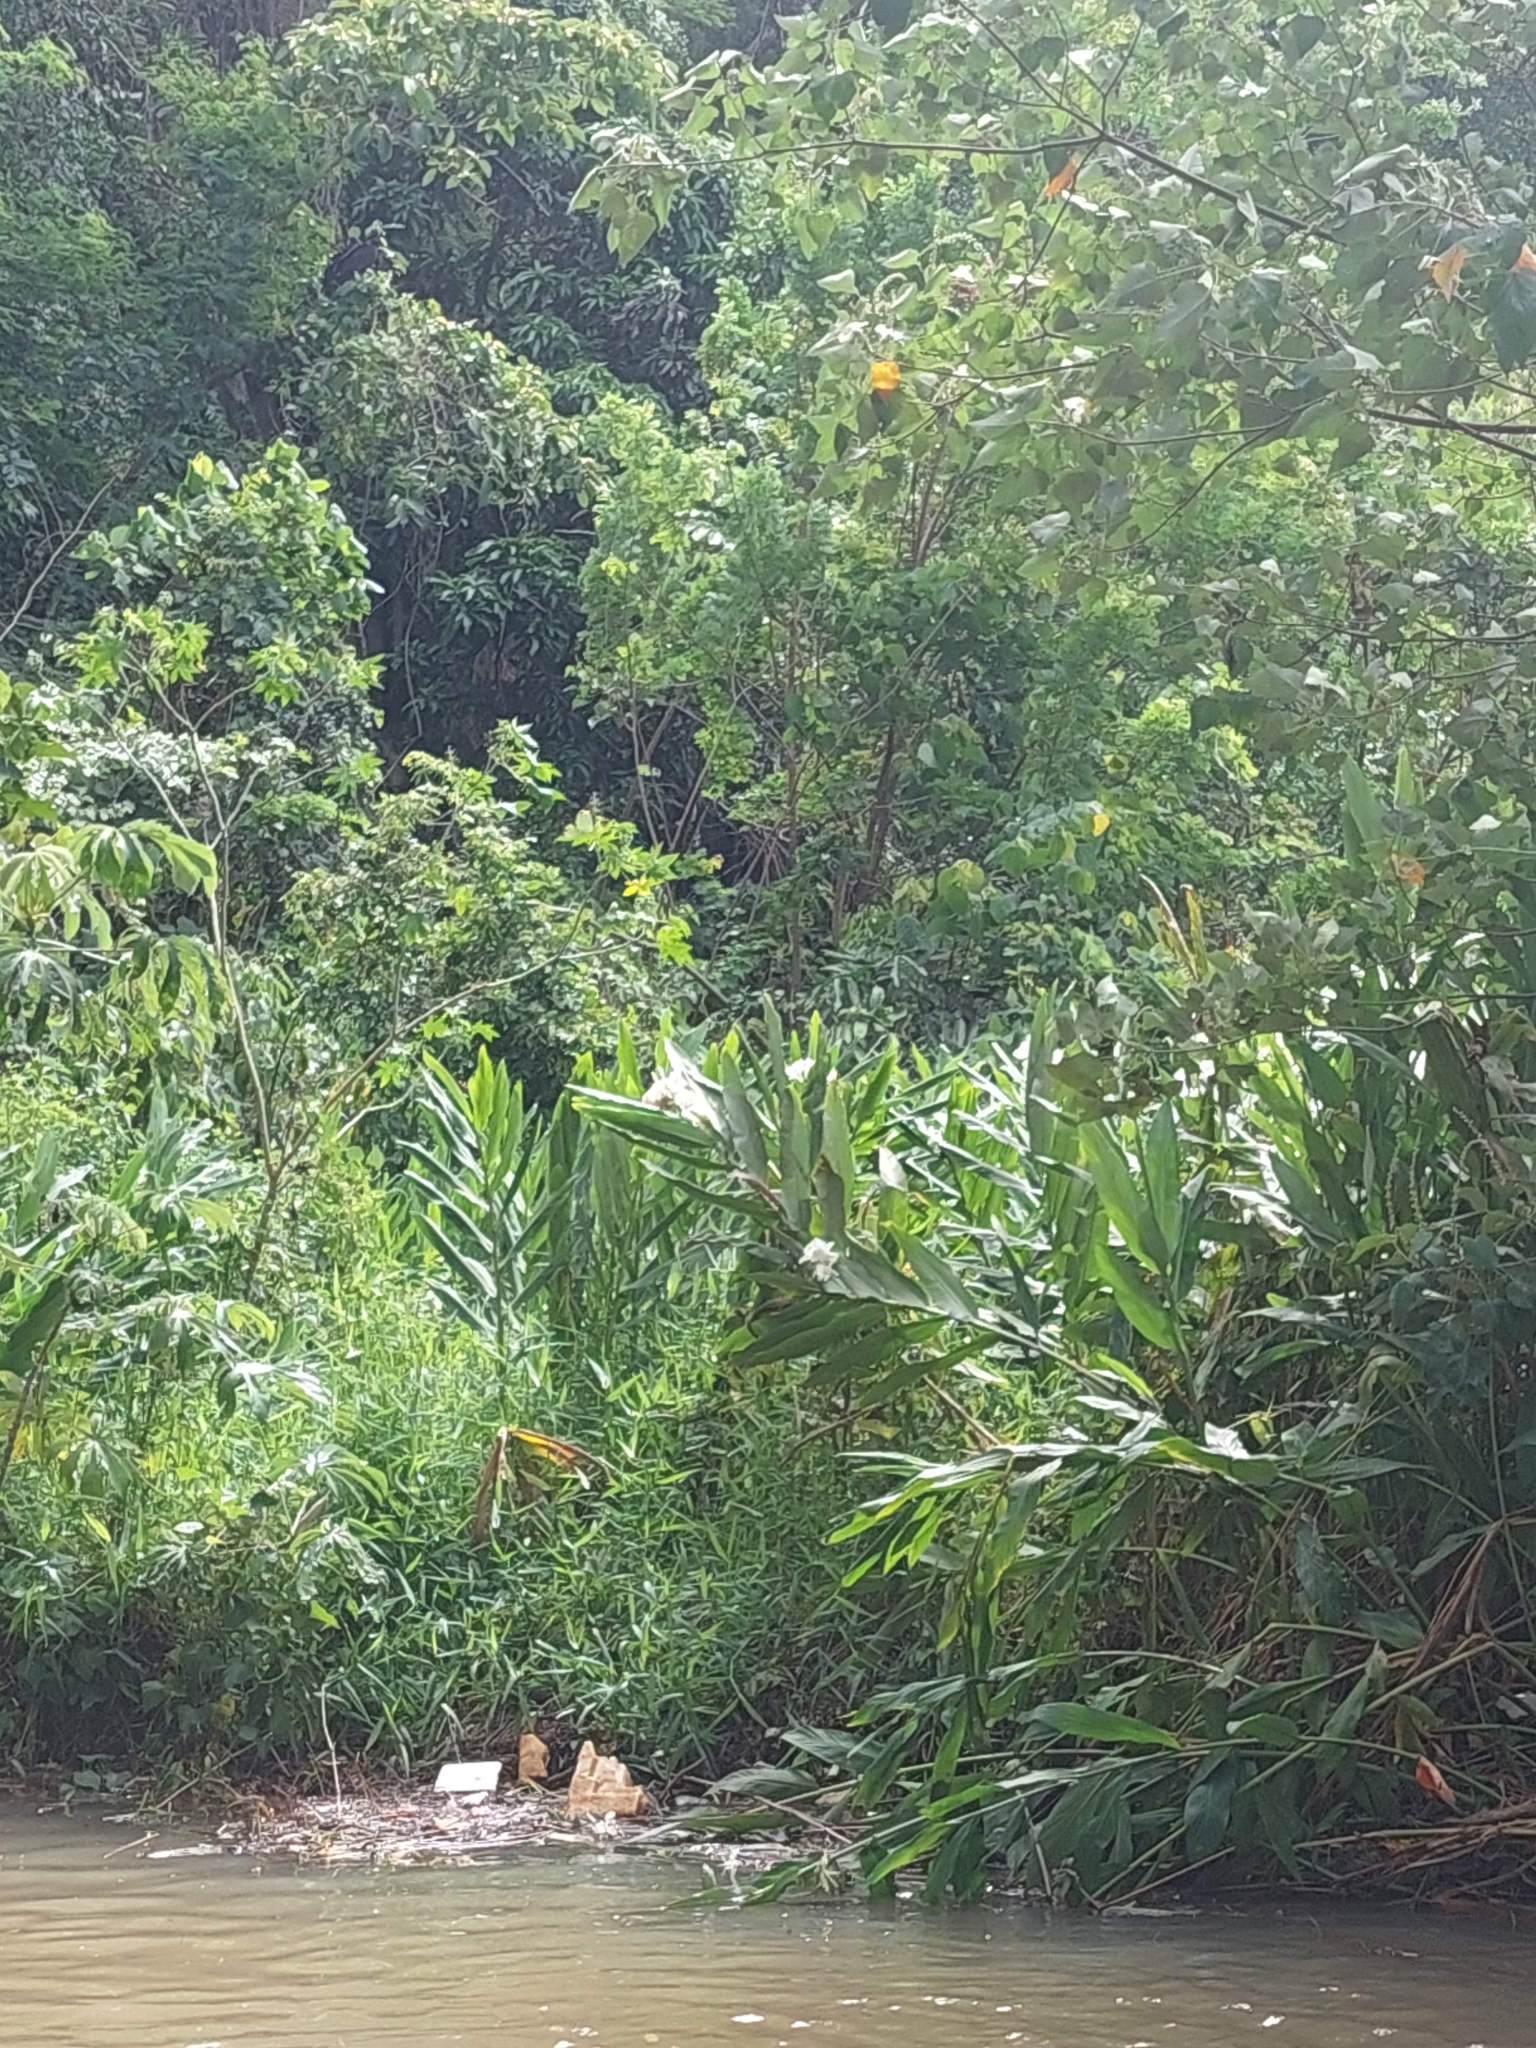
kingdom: Plantae
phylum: Tracheophyta
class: Liliopsida
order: Zingiberales
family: Zingiberaceae
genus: Hedychium
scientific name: Hedychium coronarium
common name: White garland-lily
